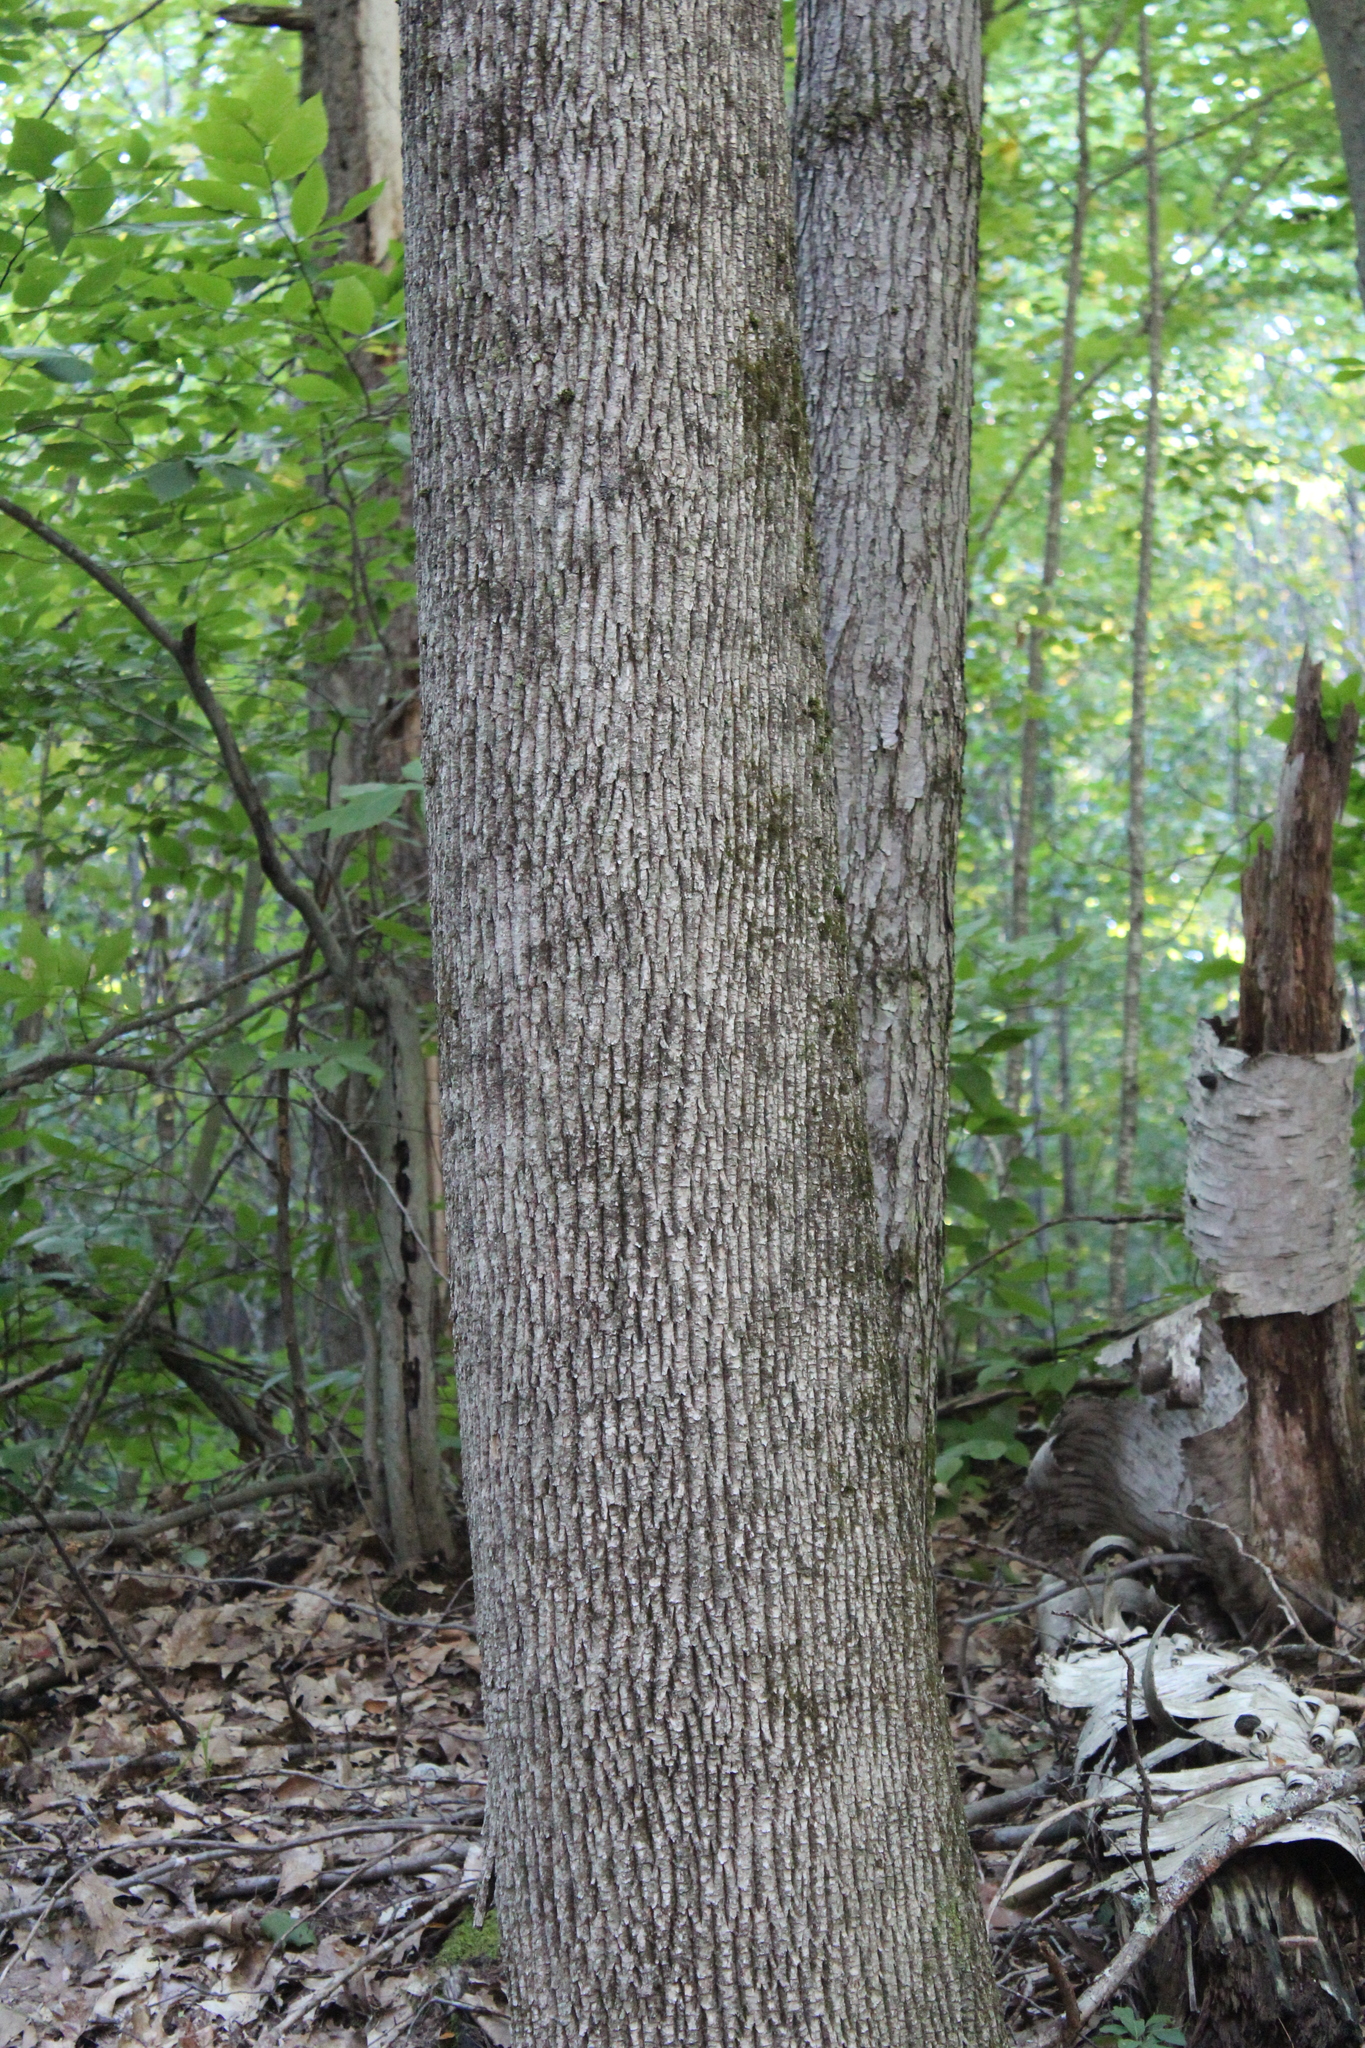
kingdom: Plantae
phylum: Tracheophyta
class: Magnoliopsida
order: Lamiales
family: Oleaceae
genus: Fraxinus
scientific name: Fraxinus americana
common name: White ash
